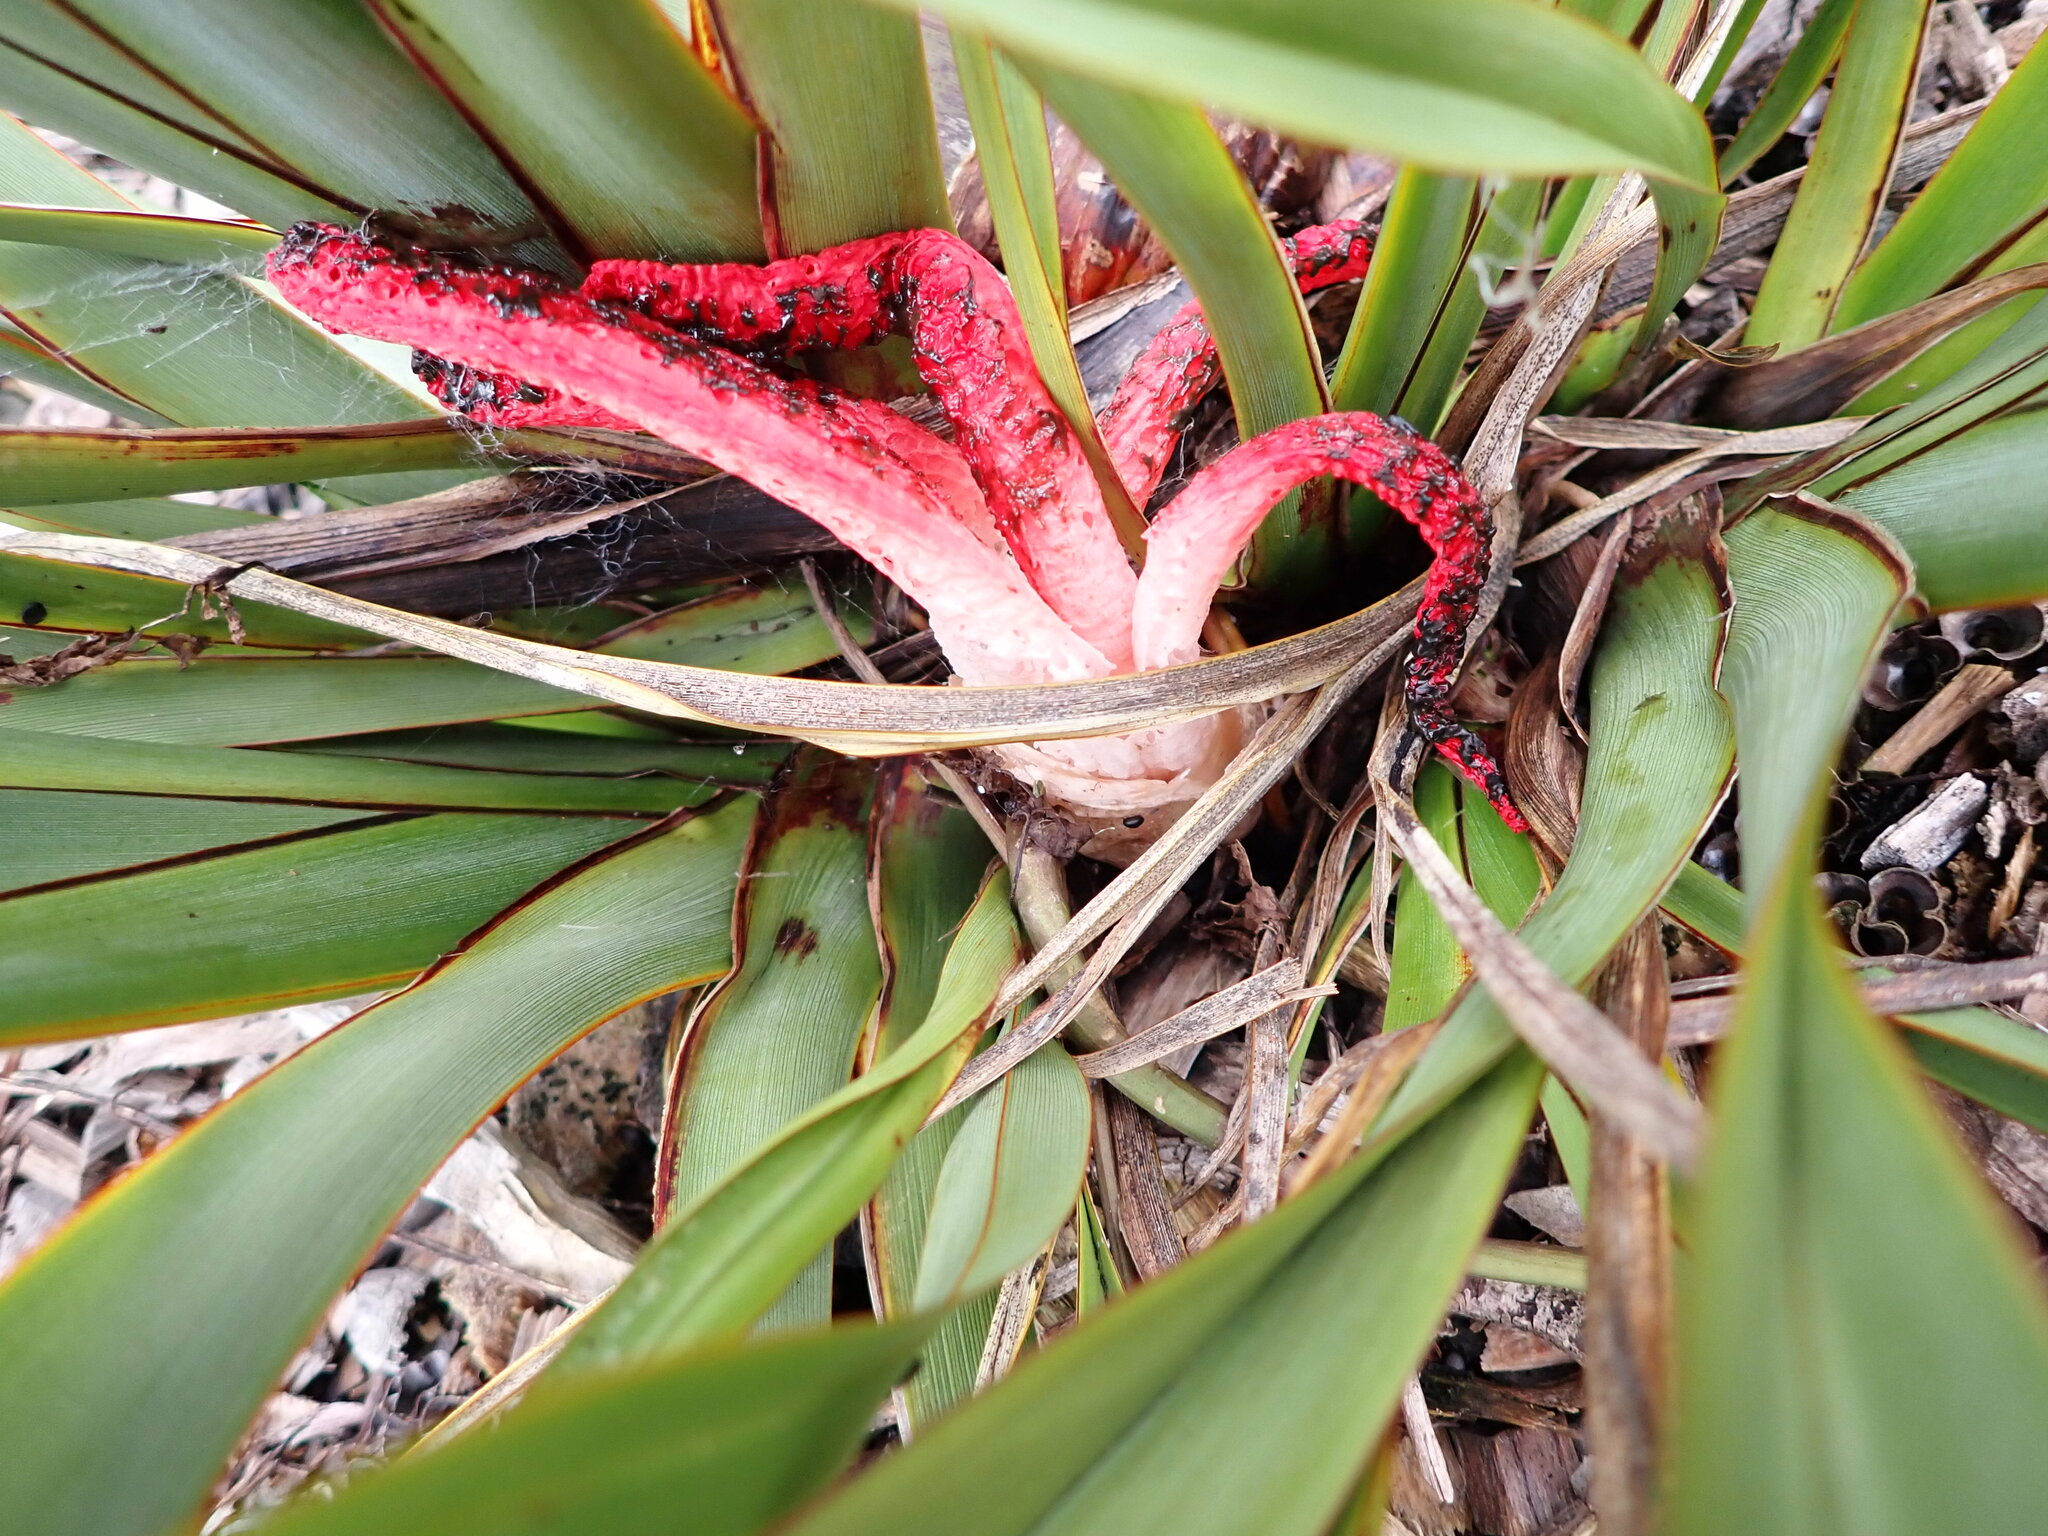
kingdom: Fungi
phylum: Basidiomycota
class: Agaricomycetes
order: Phallales
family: Phallaceae
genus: Clathrus
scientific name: Clathrus archeri
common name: Devil's fingers
